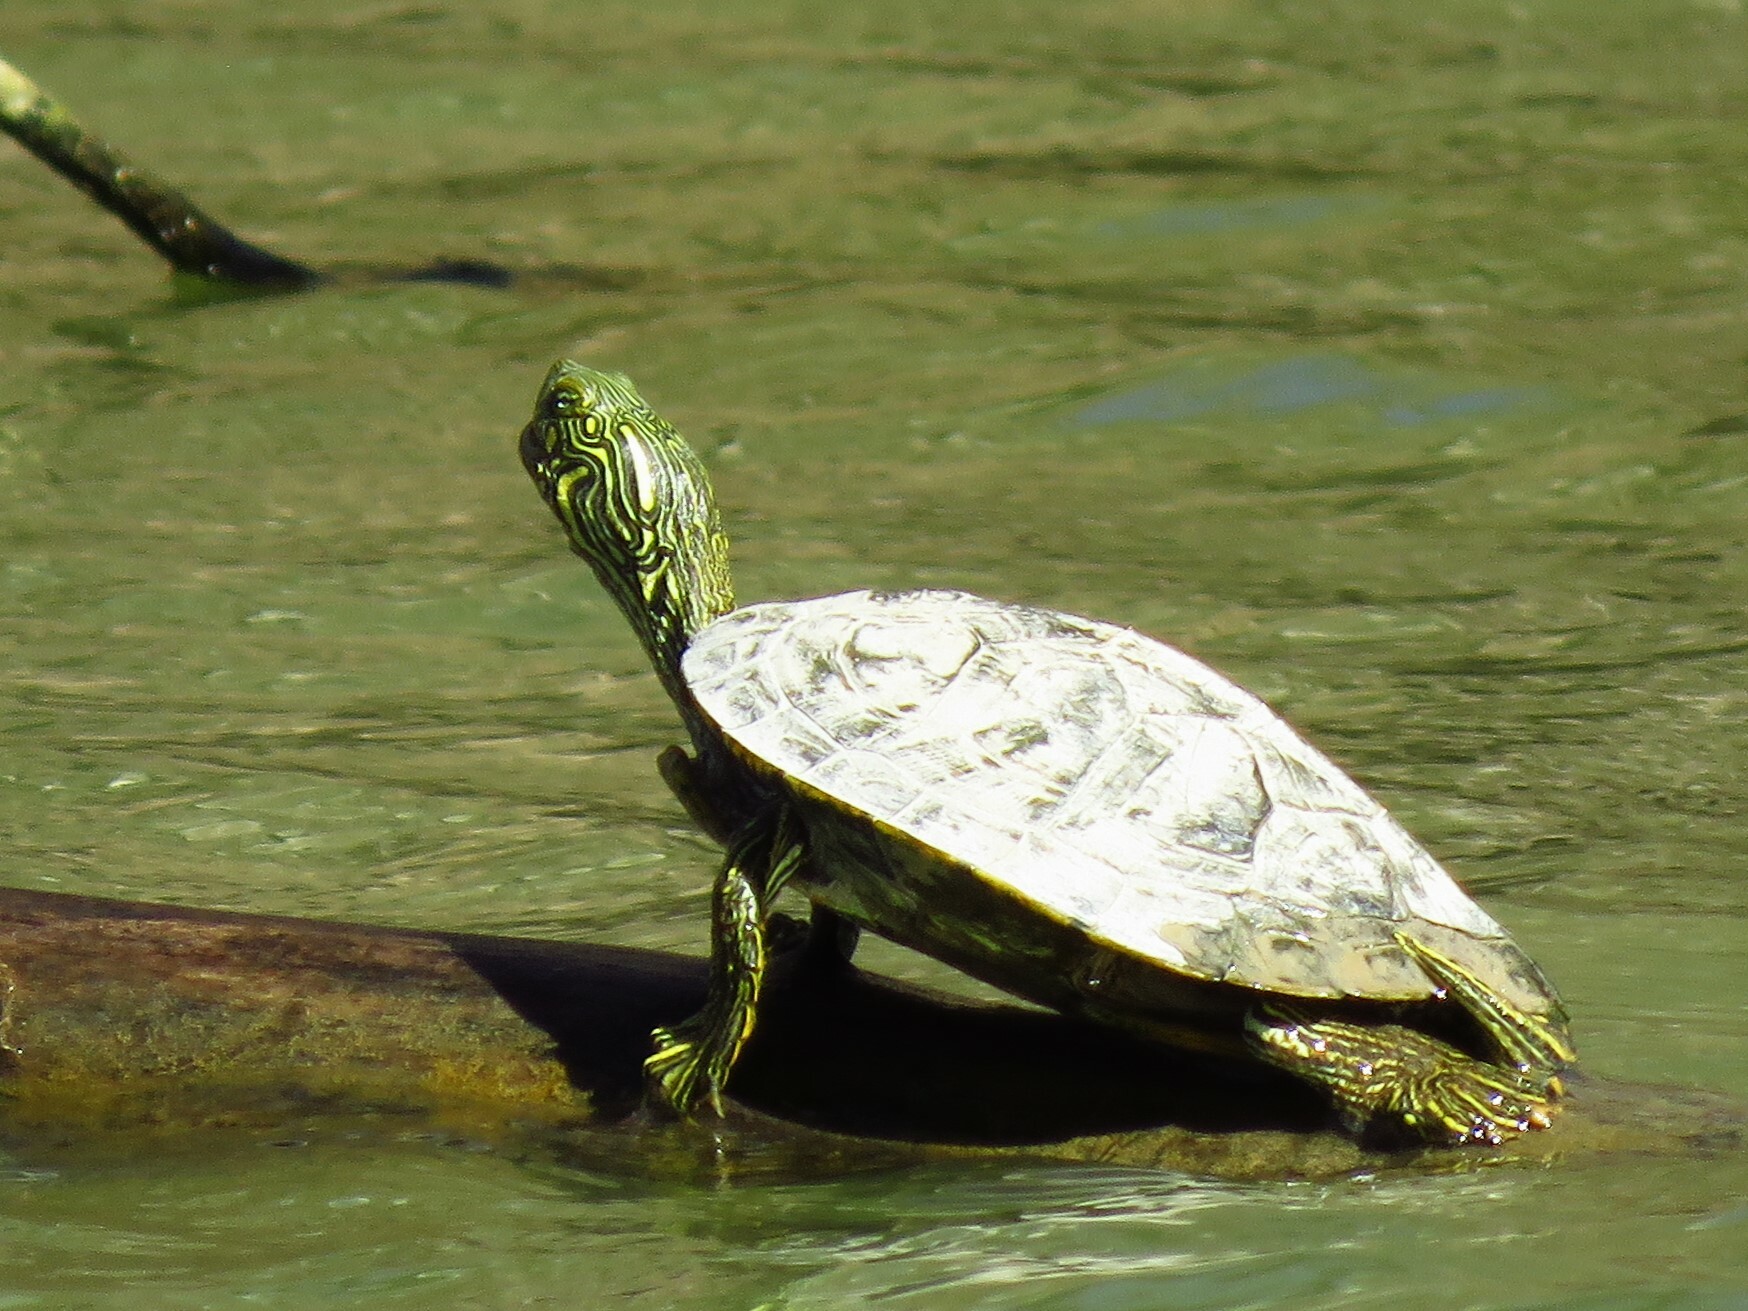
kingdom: Animalia
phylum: Chordata
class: Testudines
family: Emydidae
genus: Pseudemys
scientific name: Pseudemys texana
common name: Texas river cooter
